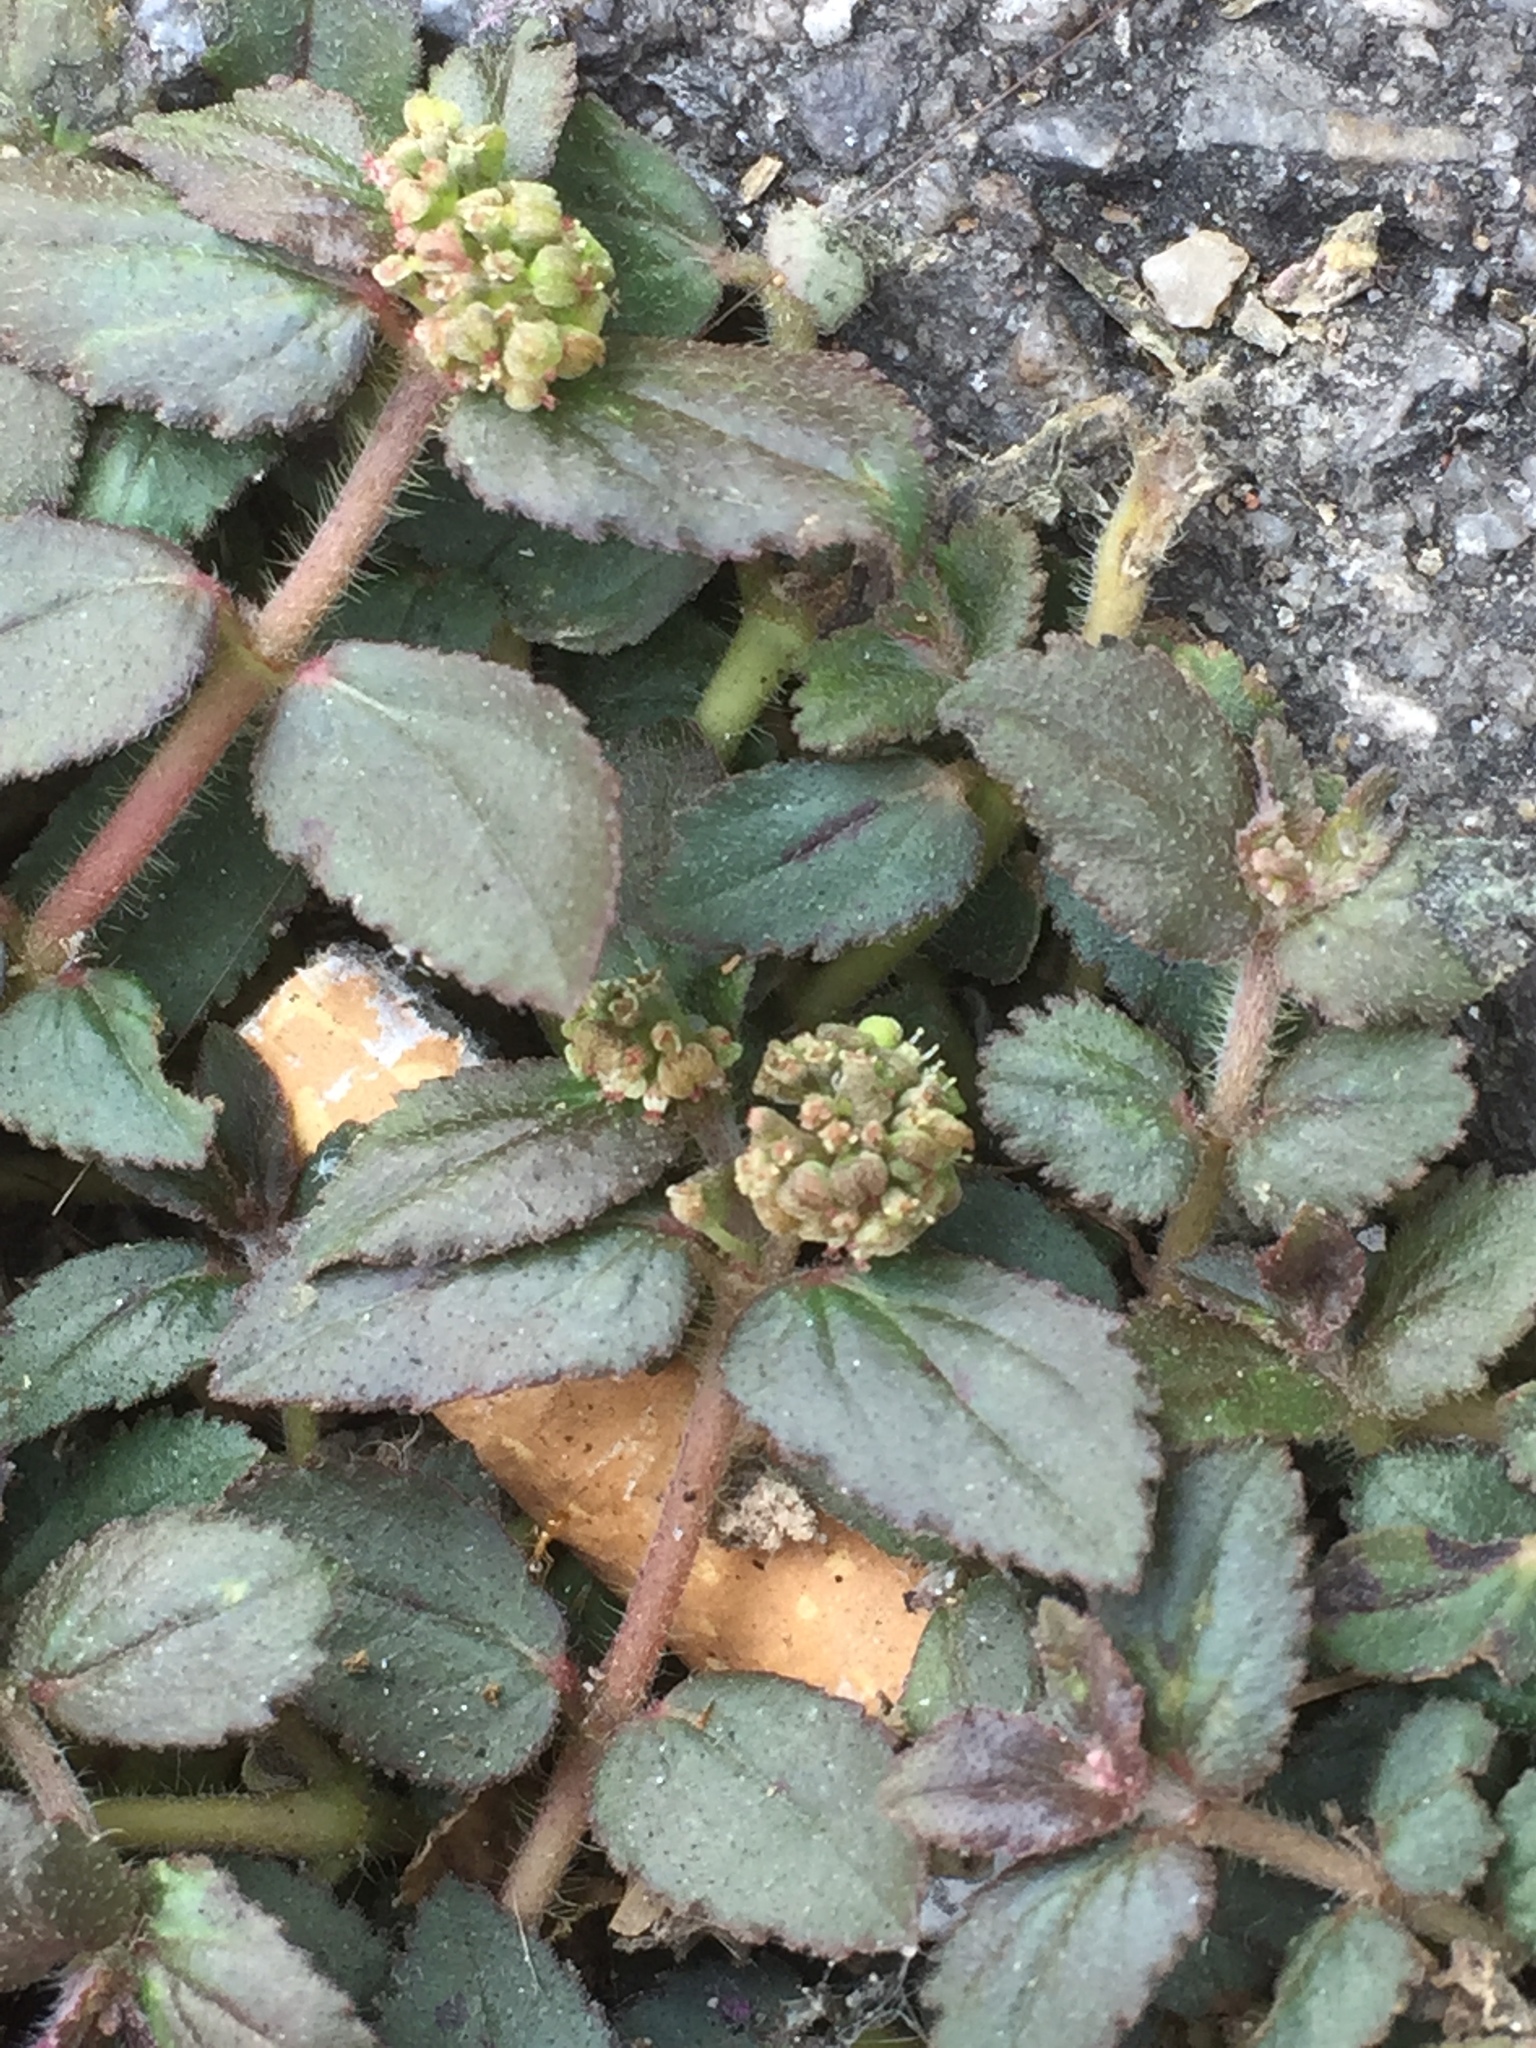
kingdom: Plantae
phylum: Tracheophyta
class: Magnoliopsida
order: Malpighiales
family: Euphorbiaceae
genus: Euphorbia
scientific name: Euphorbia hirta
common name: Pillpod sandmat
